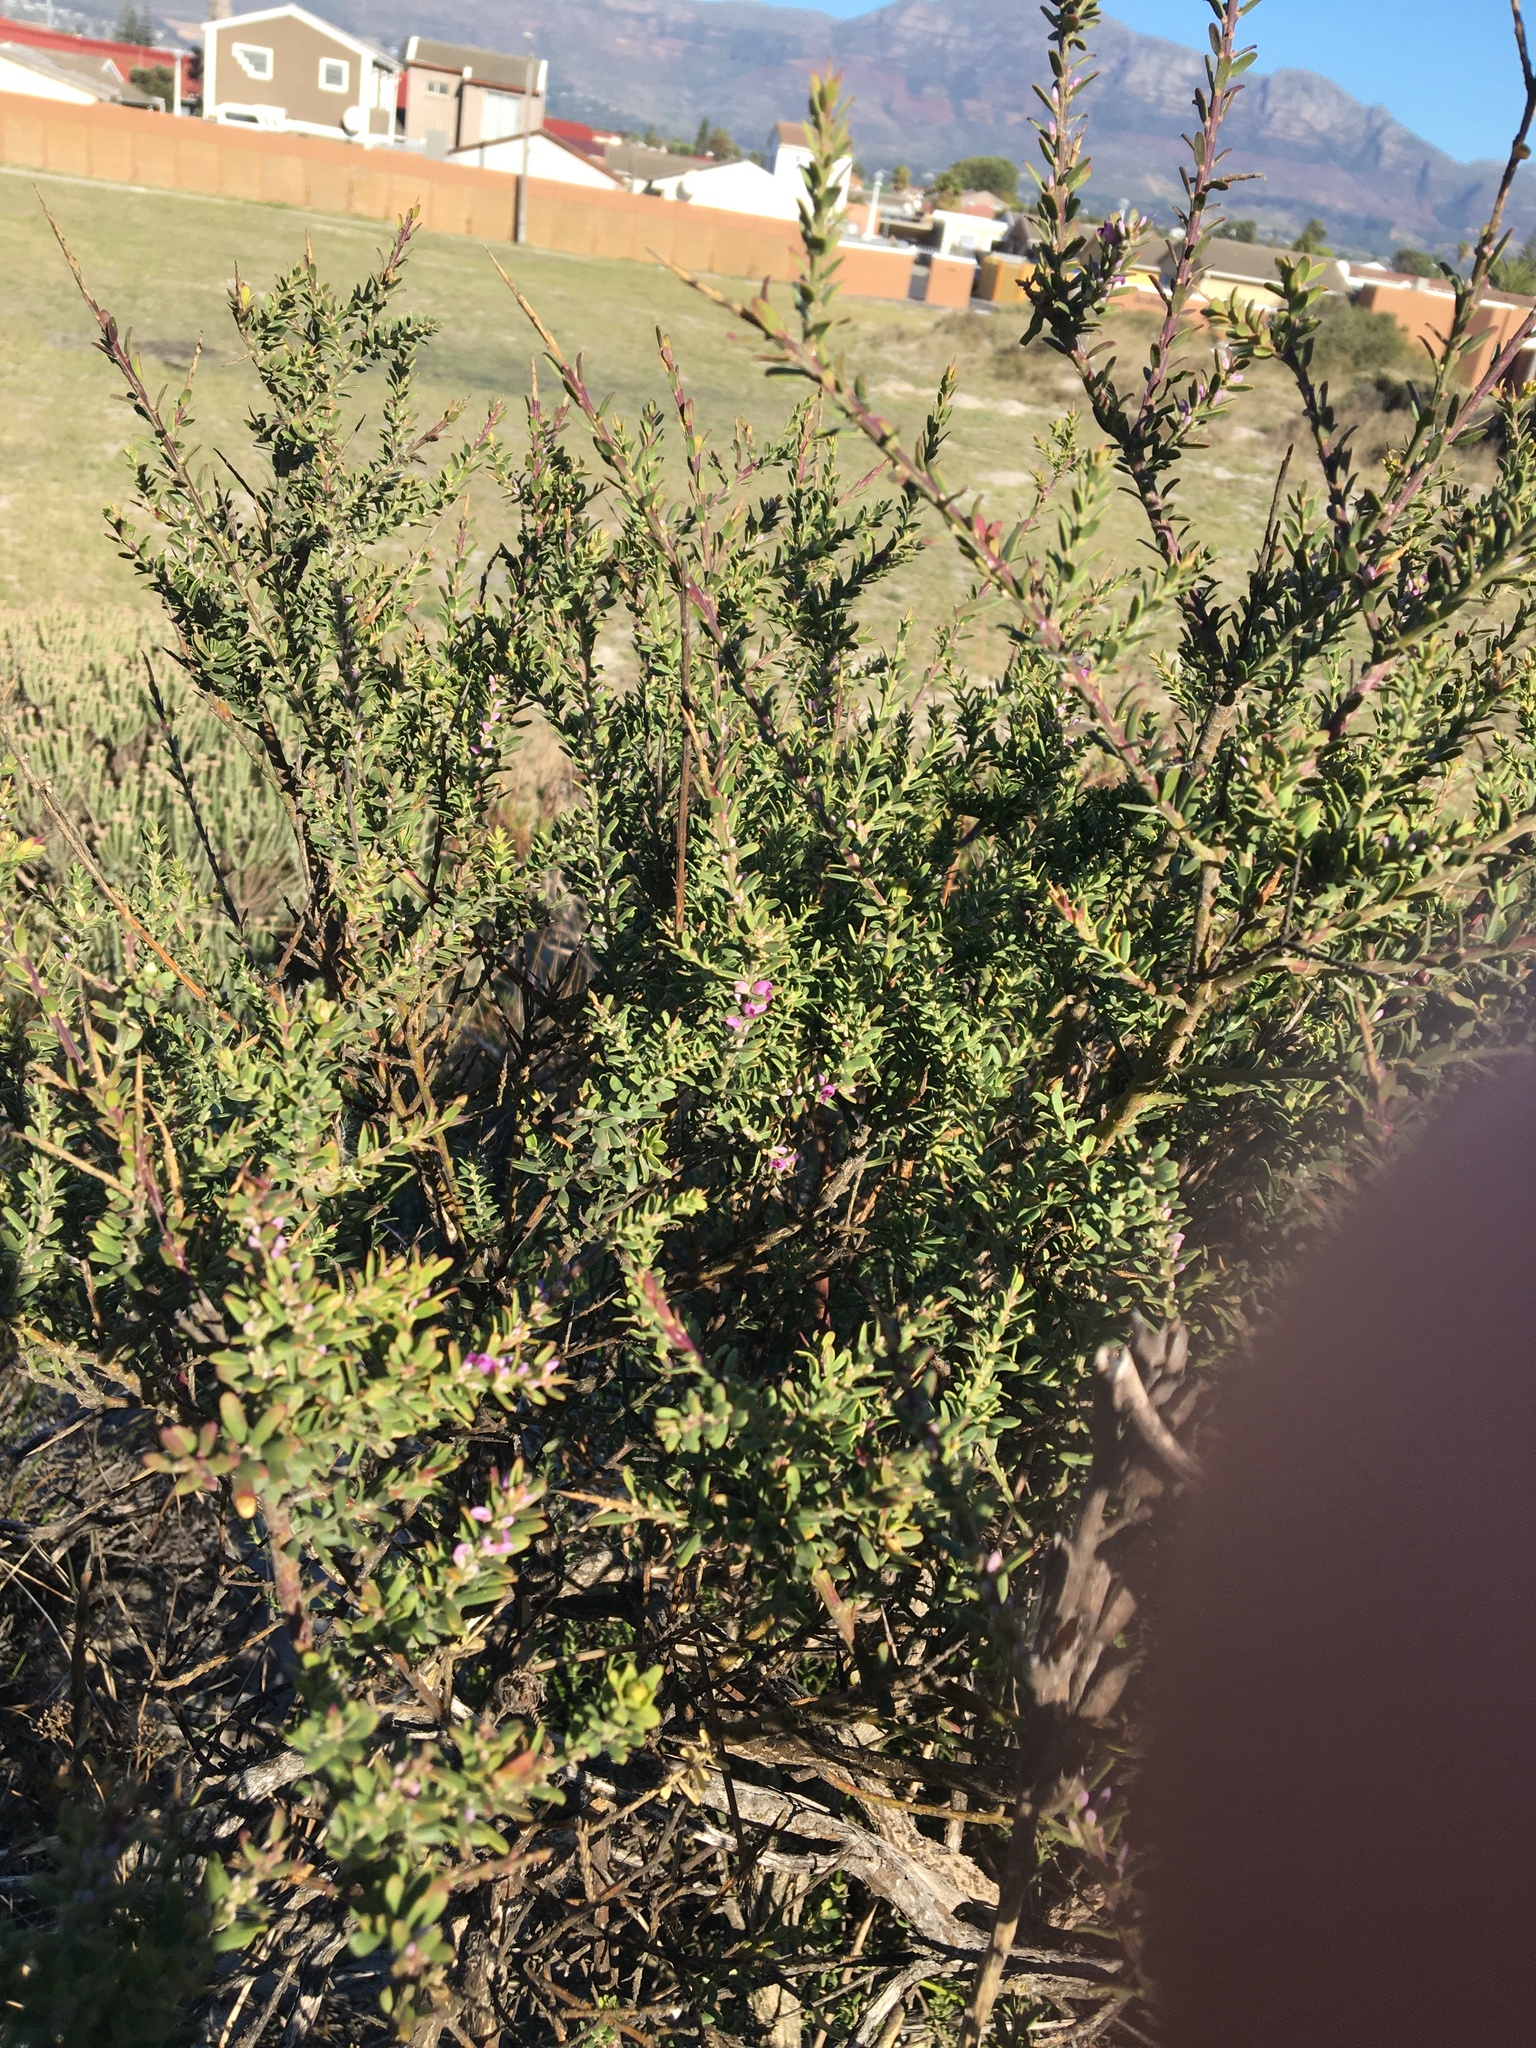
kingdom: Plantae
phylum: Tracheophyta
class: Magnoliopsida
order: Fabales
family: Polygalaceae
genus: Muraltia
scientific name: Muraltia spinosa
